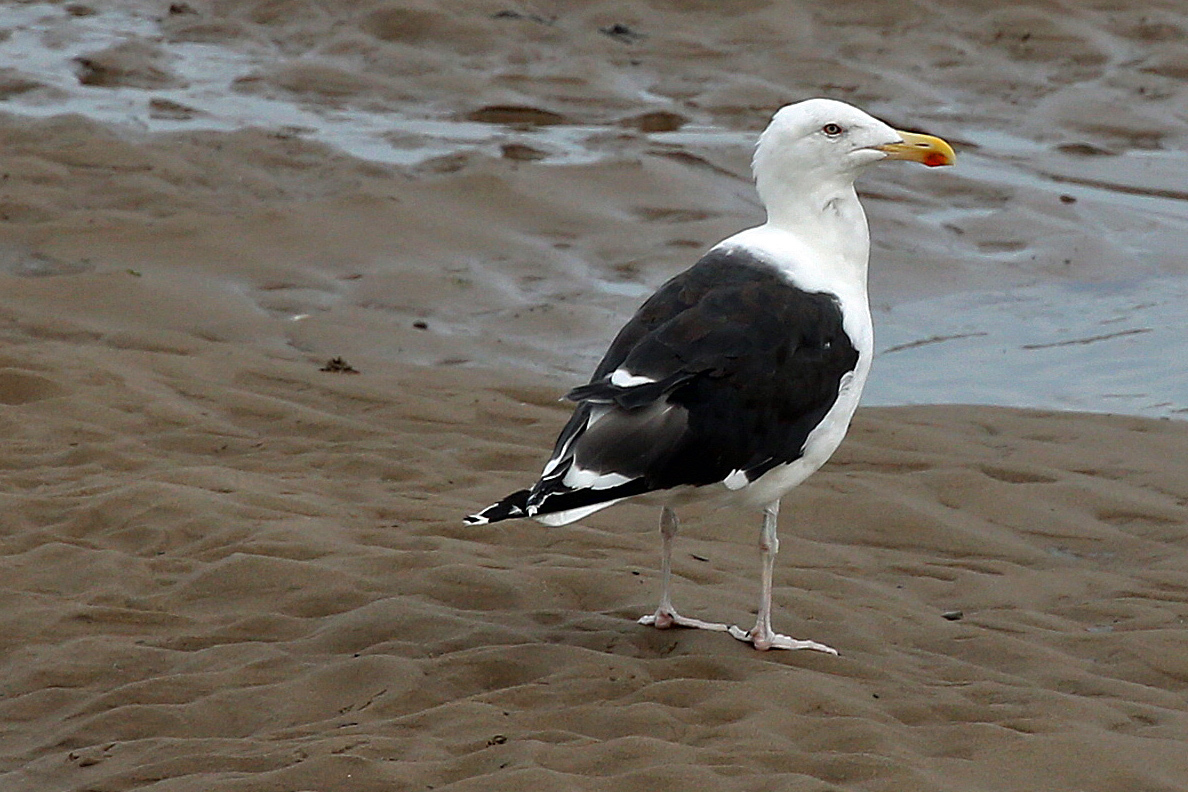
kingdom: Animalia
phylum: Chordata
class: Aves
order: Charadriiformes
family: Laridae
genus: Larus
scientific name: Larus marinus
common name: Great black-backed gull
